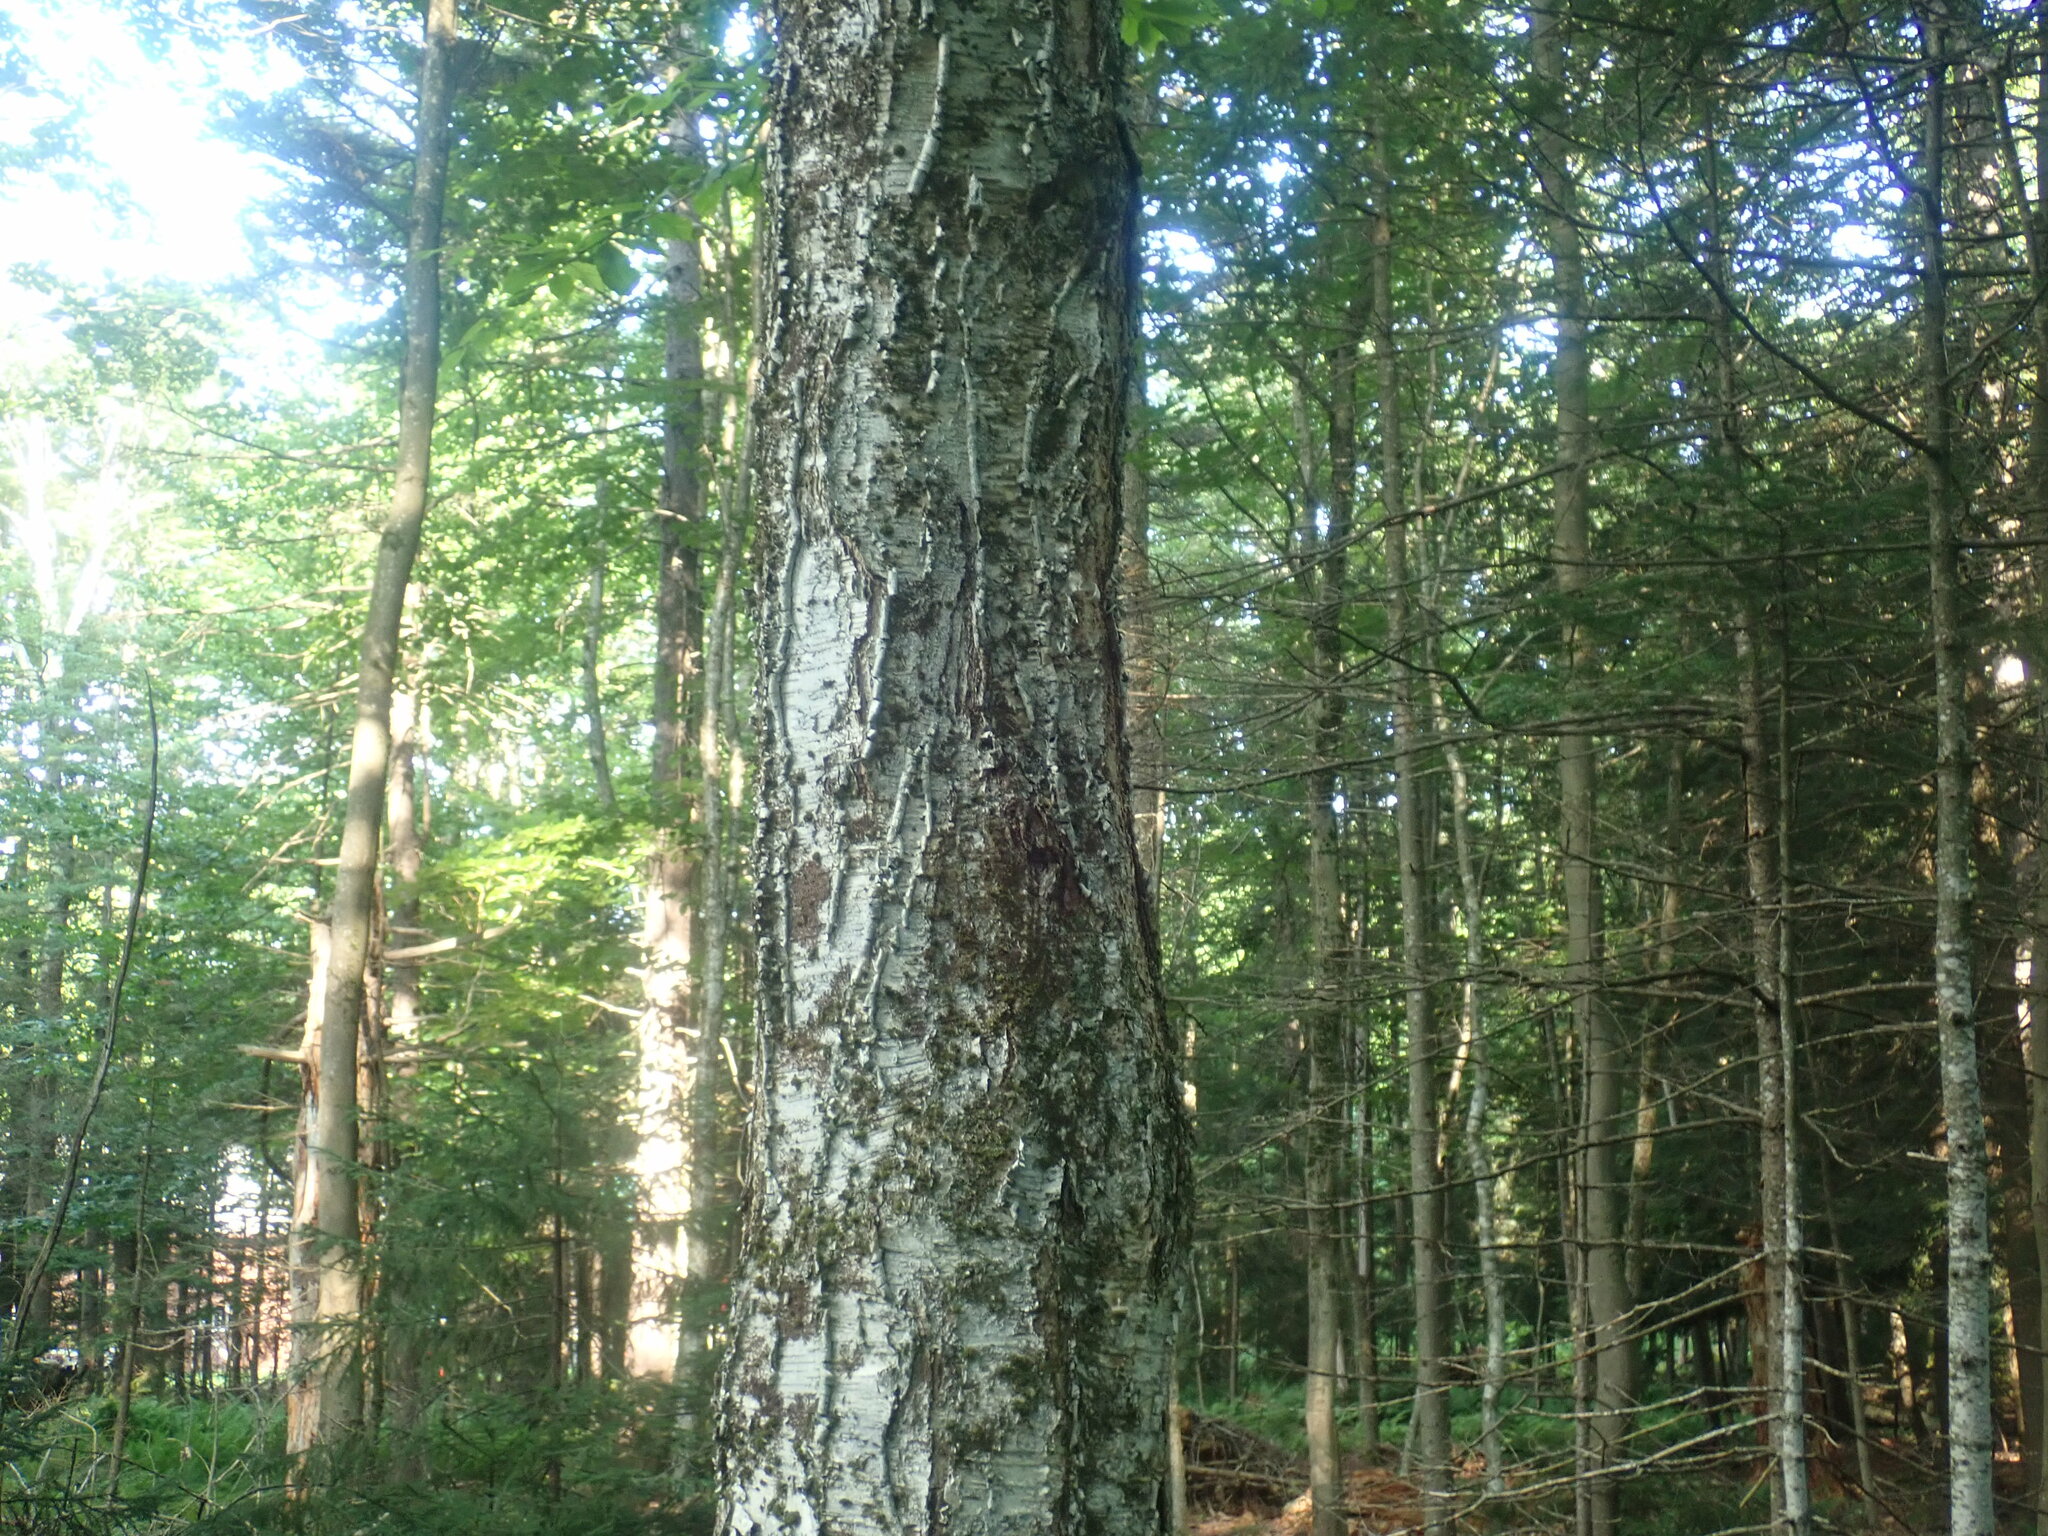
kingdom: Plantae
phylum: Tracheophyta
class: Magnoliopsida
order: Fagales
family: Betulaceae
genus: Betula
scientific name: Betula alleghaniensis
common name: Yellow birch
